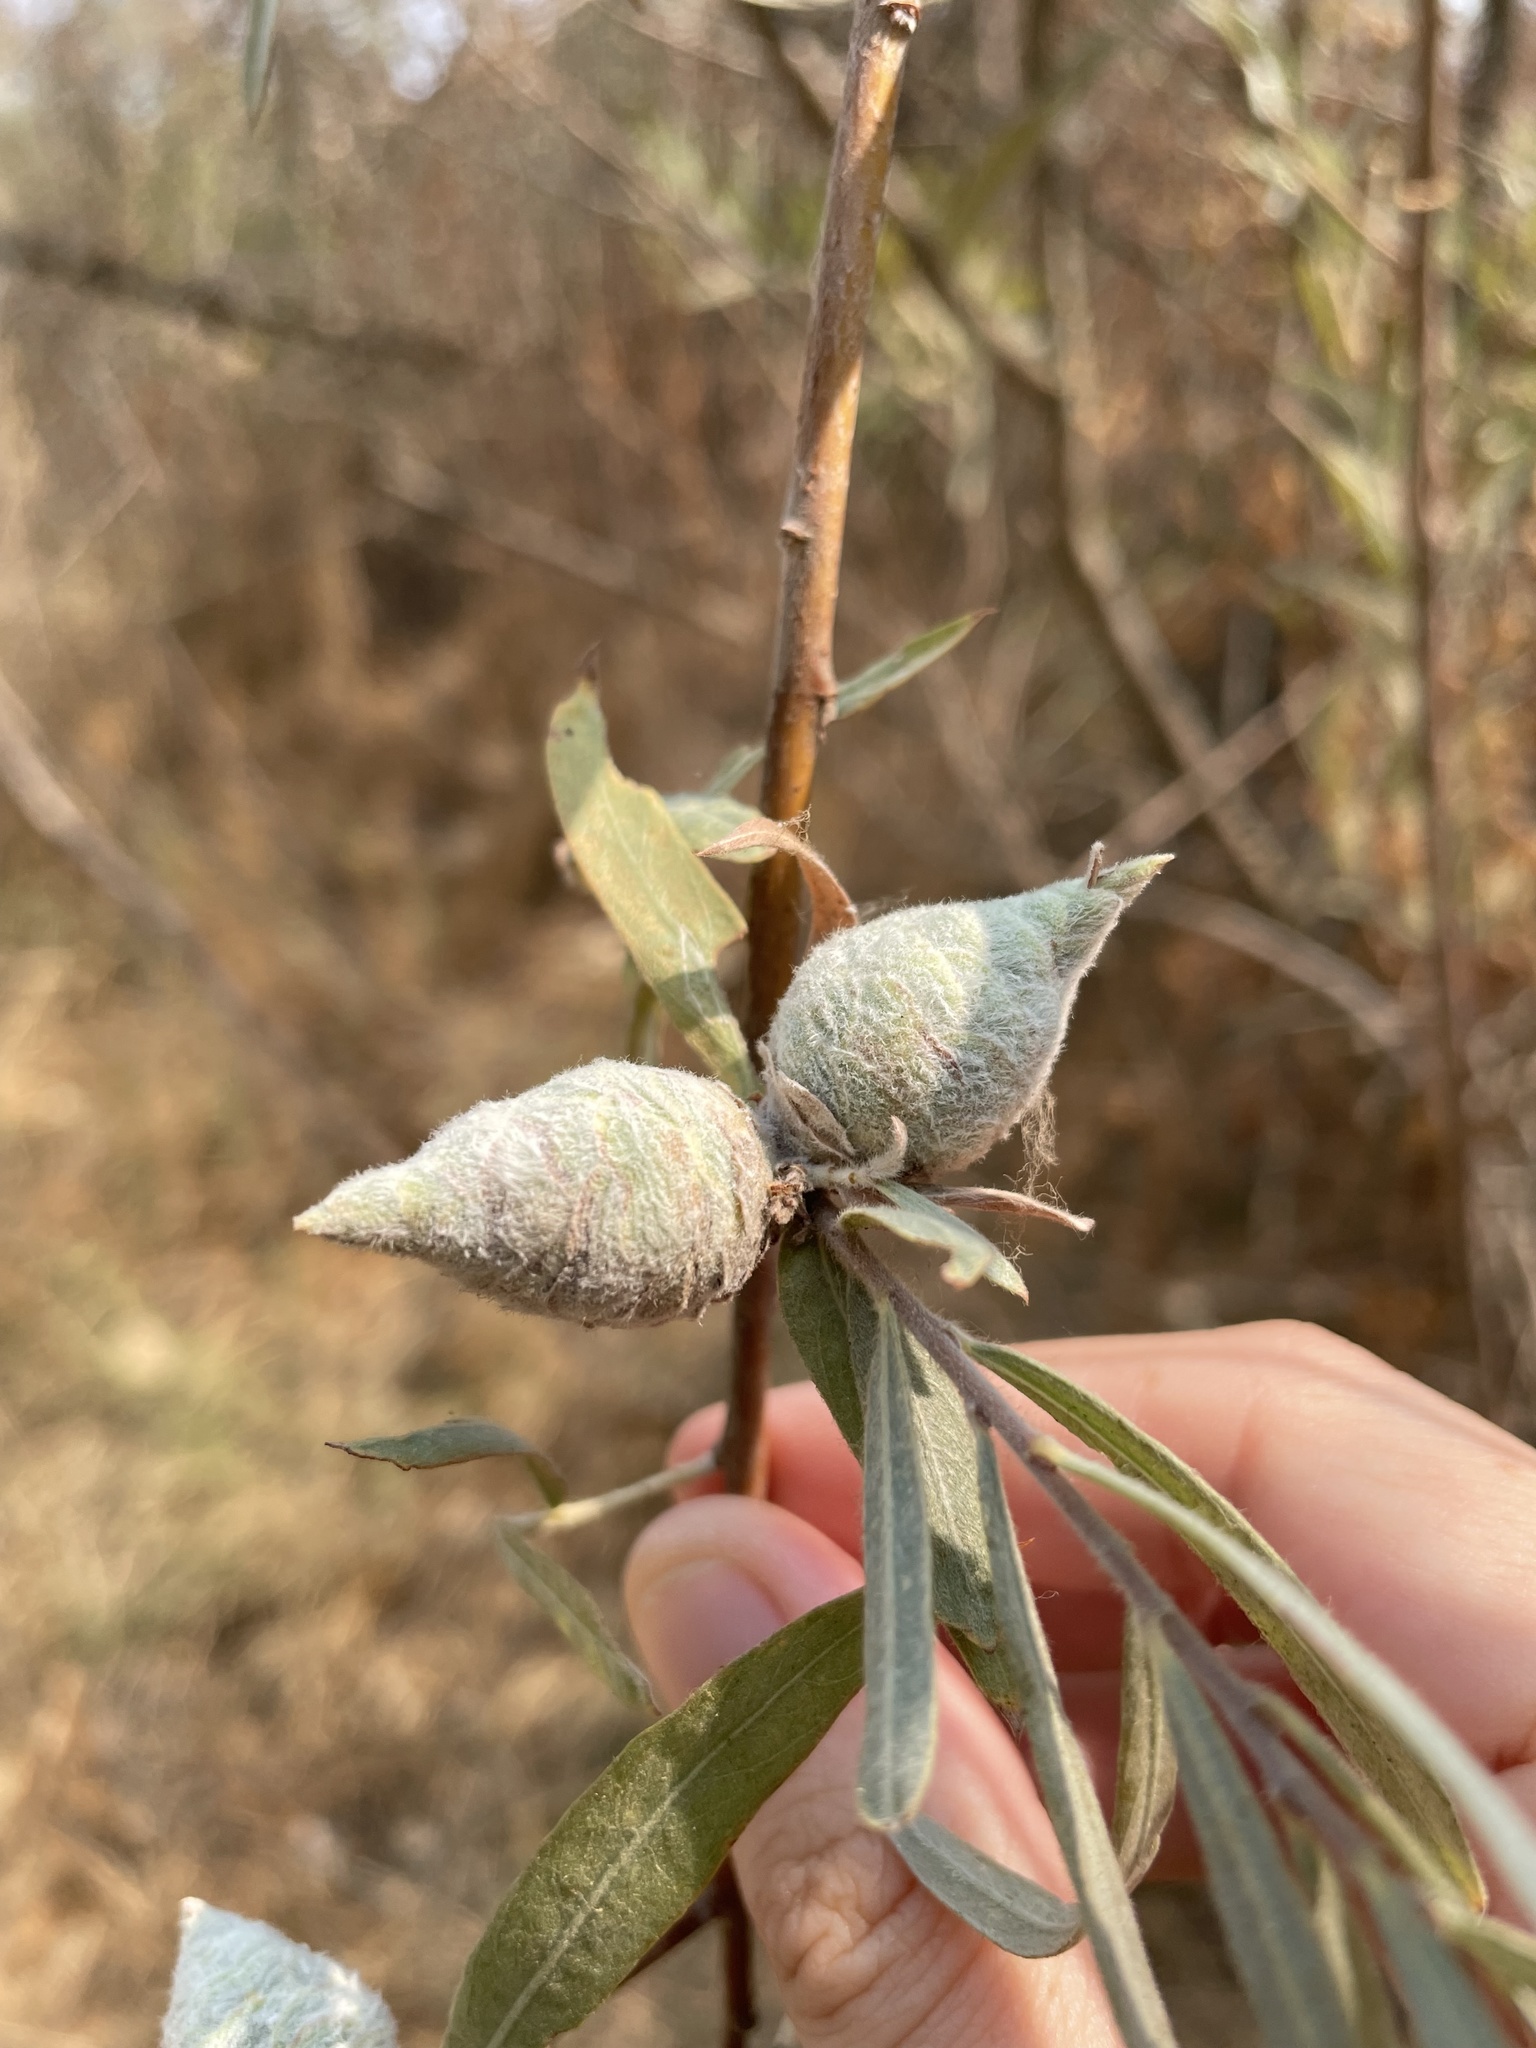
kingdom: Animalia
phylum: Arthropoda
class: Insecta
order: Diptera
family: Cecidomyiidae
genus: Rabdophaga
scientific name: Rabdophaga strobiloides
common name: Willow pinecone gall midge
